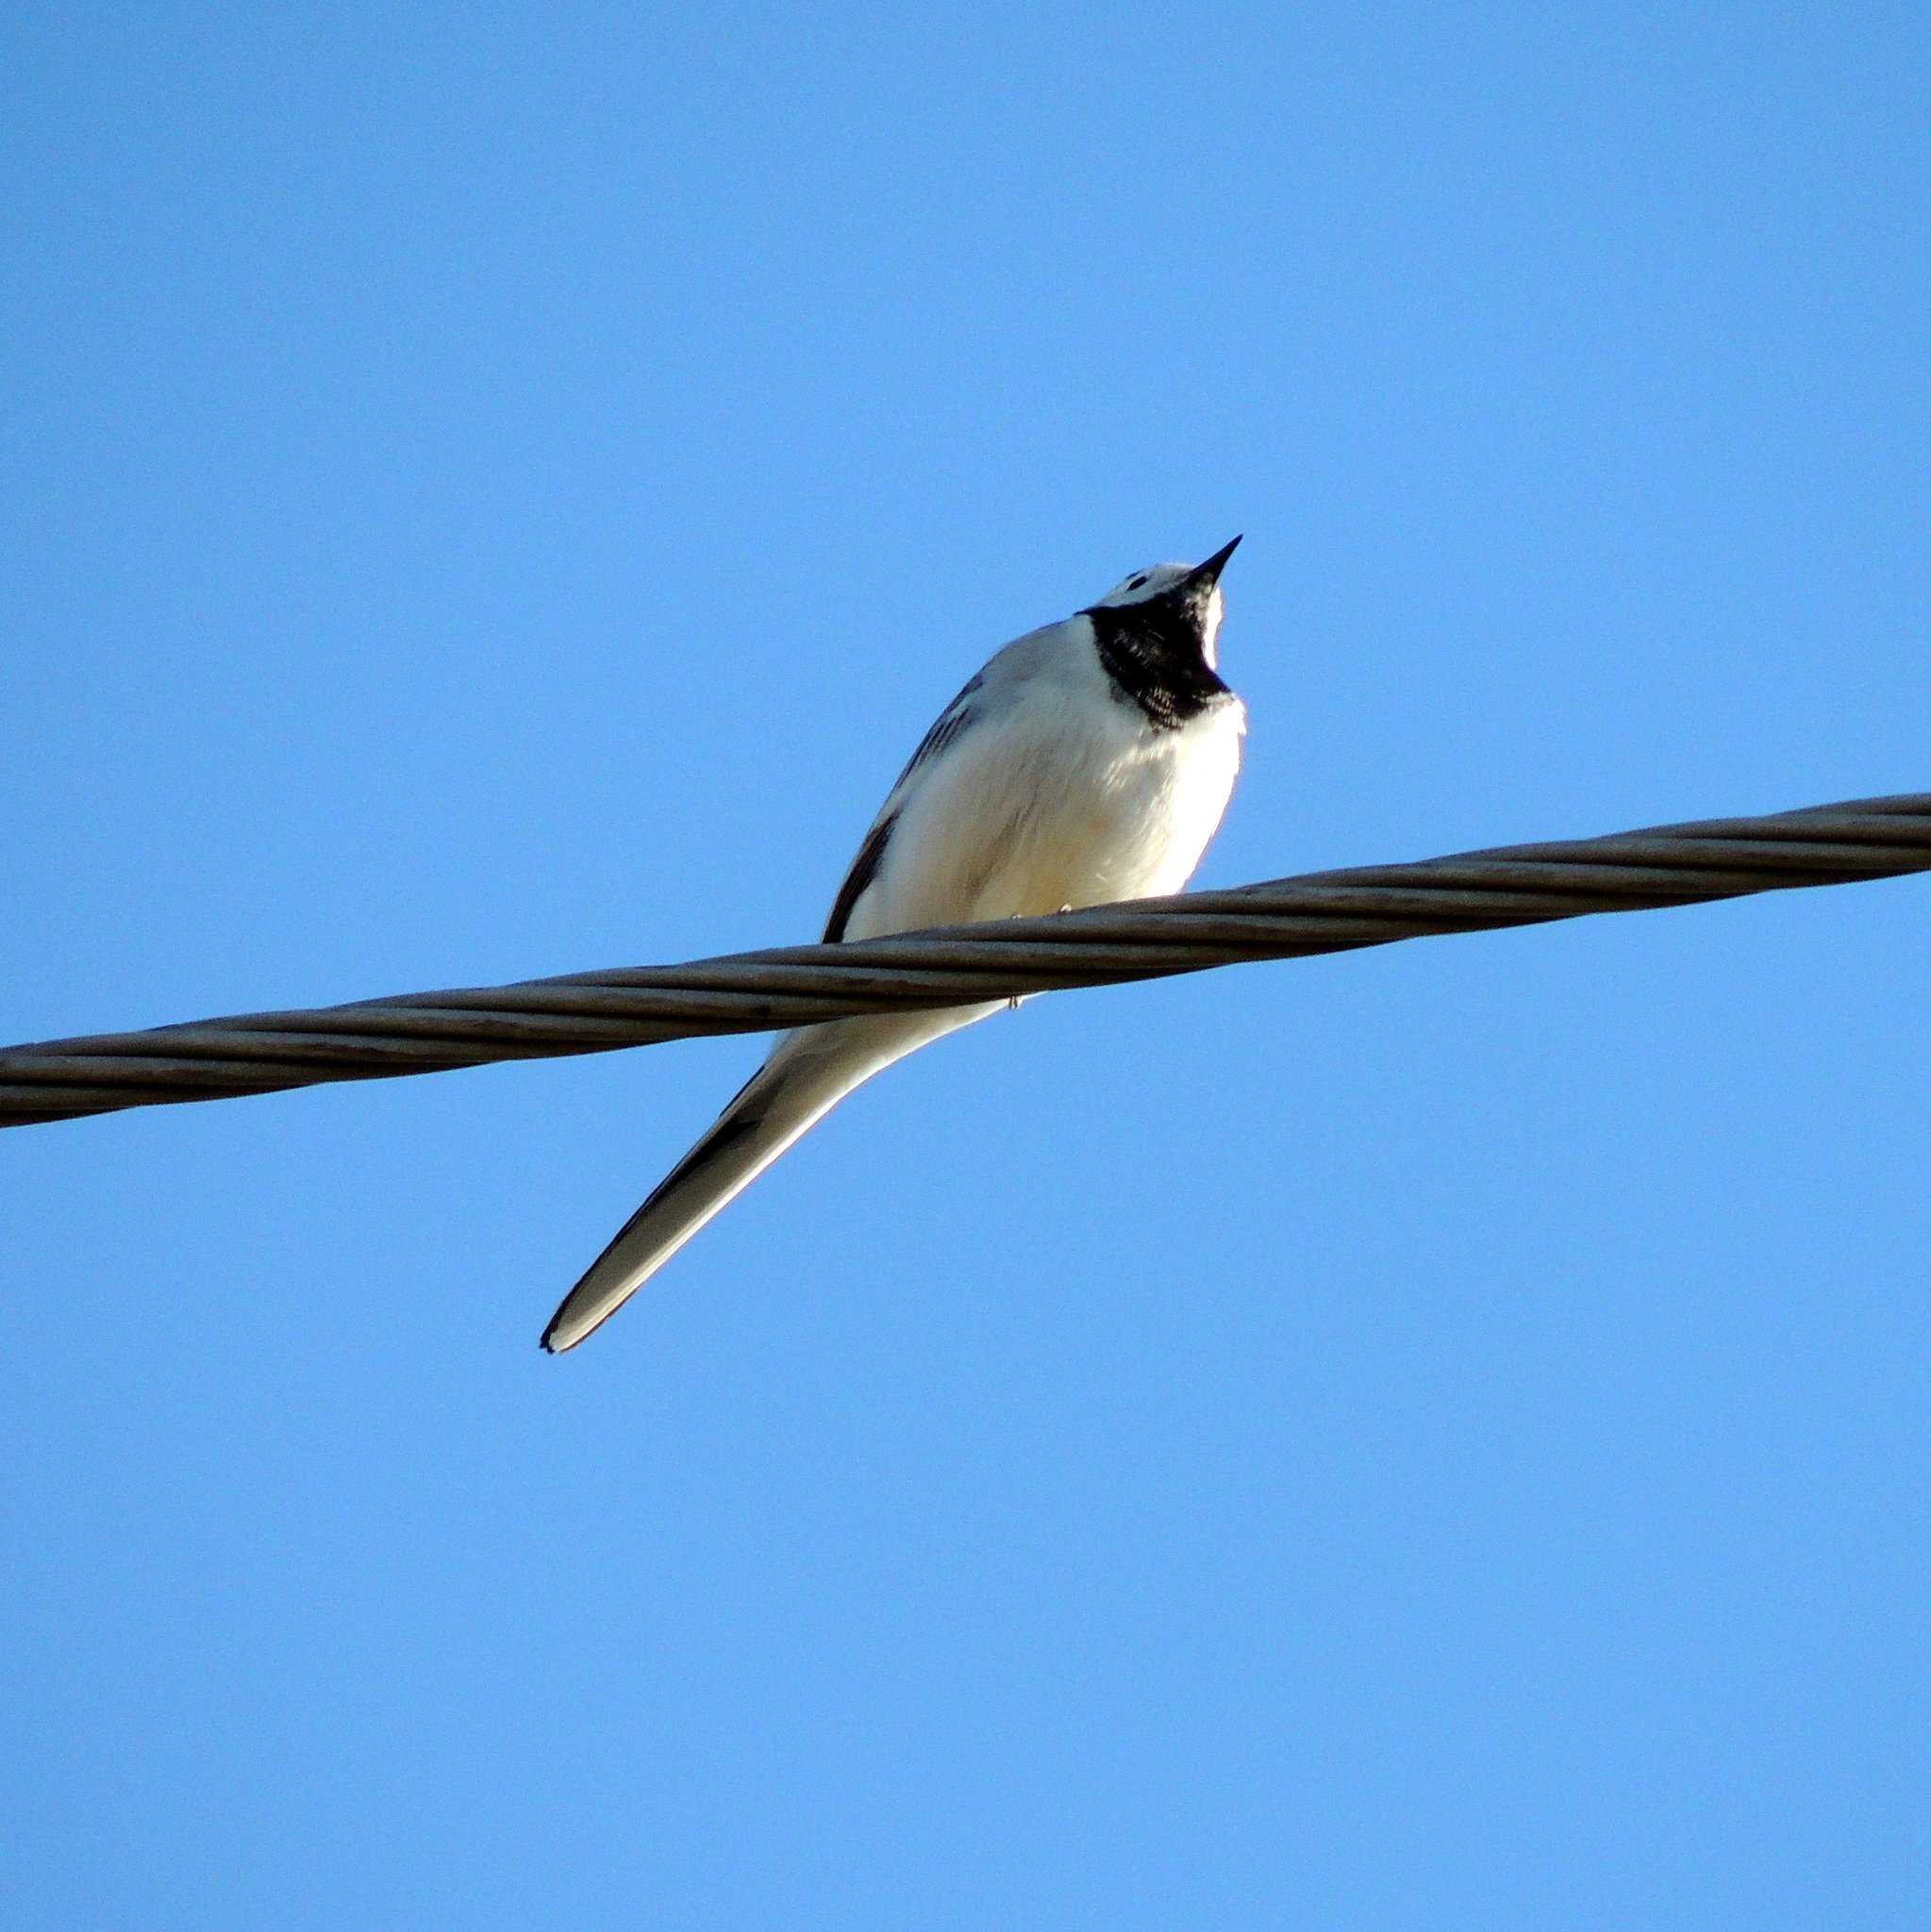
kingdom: Animalia
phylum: Chordata
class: Aves
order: Passeriformes
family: Motacillidae
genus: Motacilla
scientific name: Motacilla alba
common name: White wagtail
